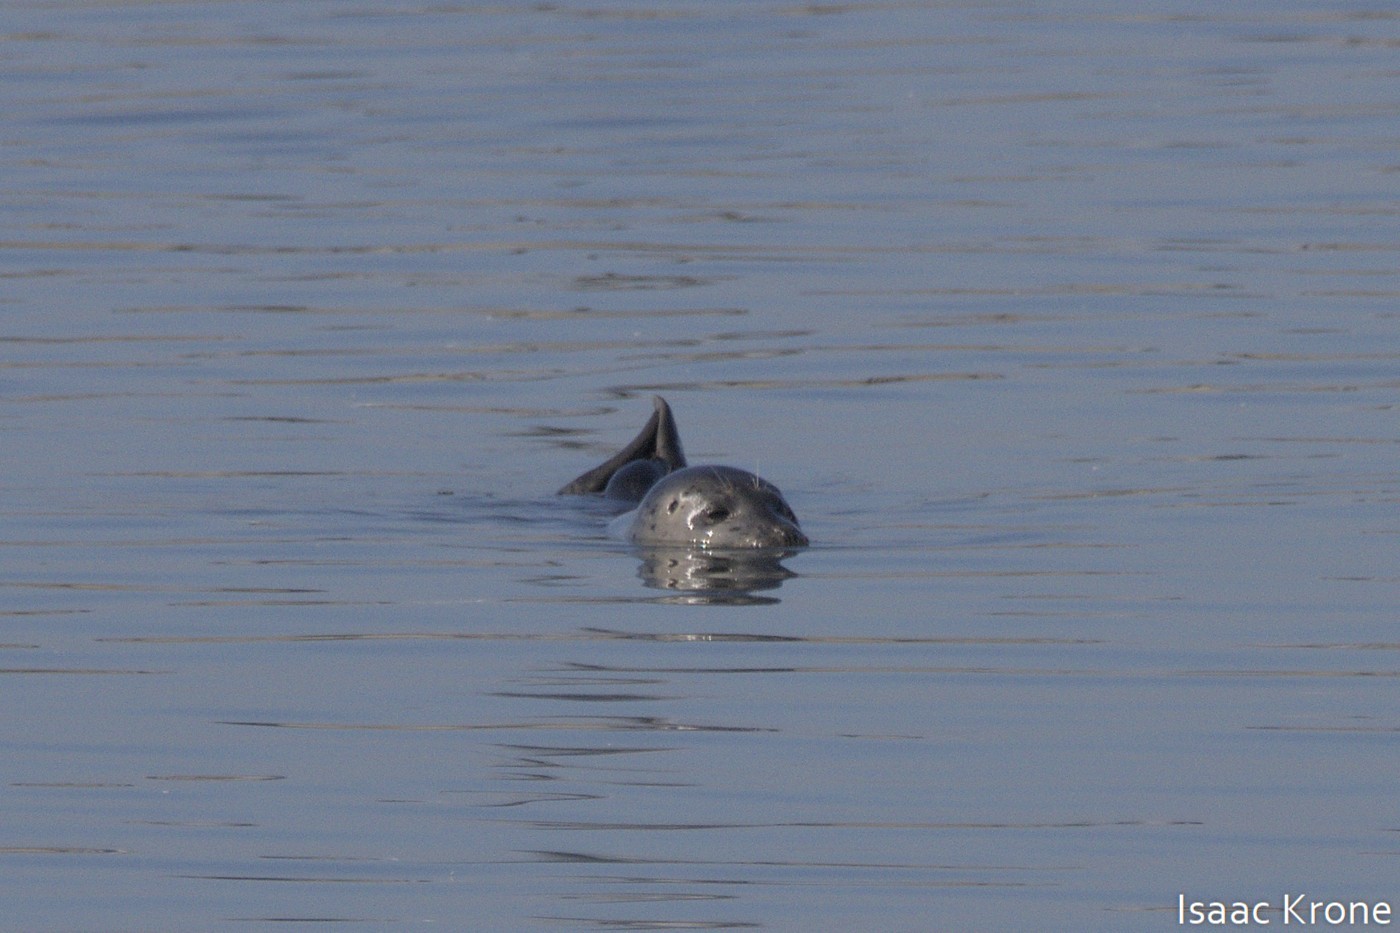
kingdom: Animalia
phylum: Chordata
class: Mammalia
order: Carnivora
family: Phocidae
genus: Phoca
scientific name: Phoca vitulina
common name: Harbor seal
